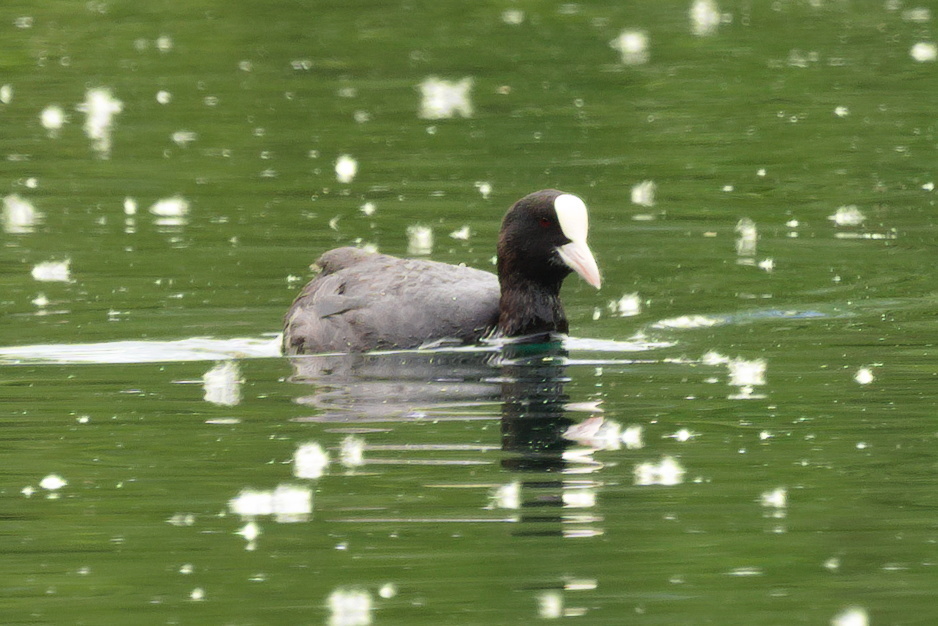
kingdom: Animalia
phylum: Chordata
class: Aves
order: Gruiformes
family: Rallidae
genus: Fulica
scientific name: Fulica atra
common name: Eurasian coot
